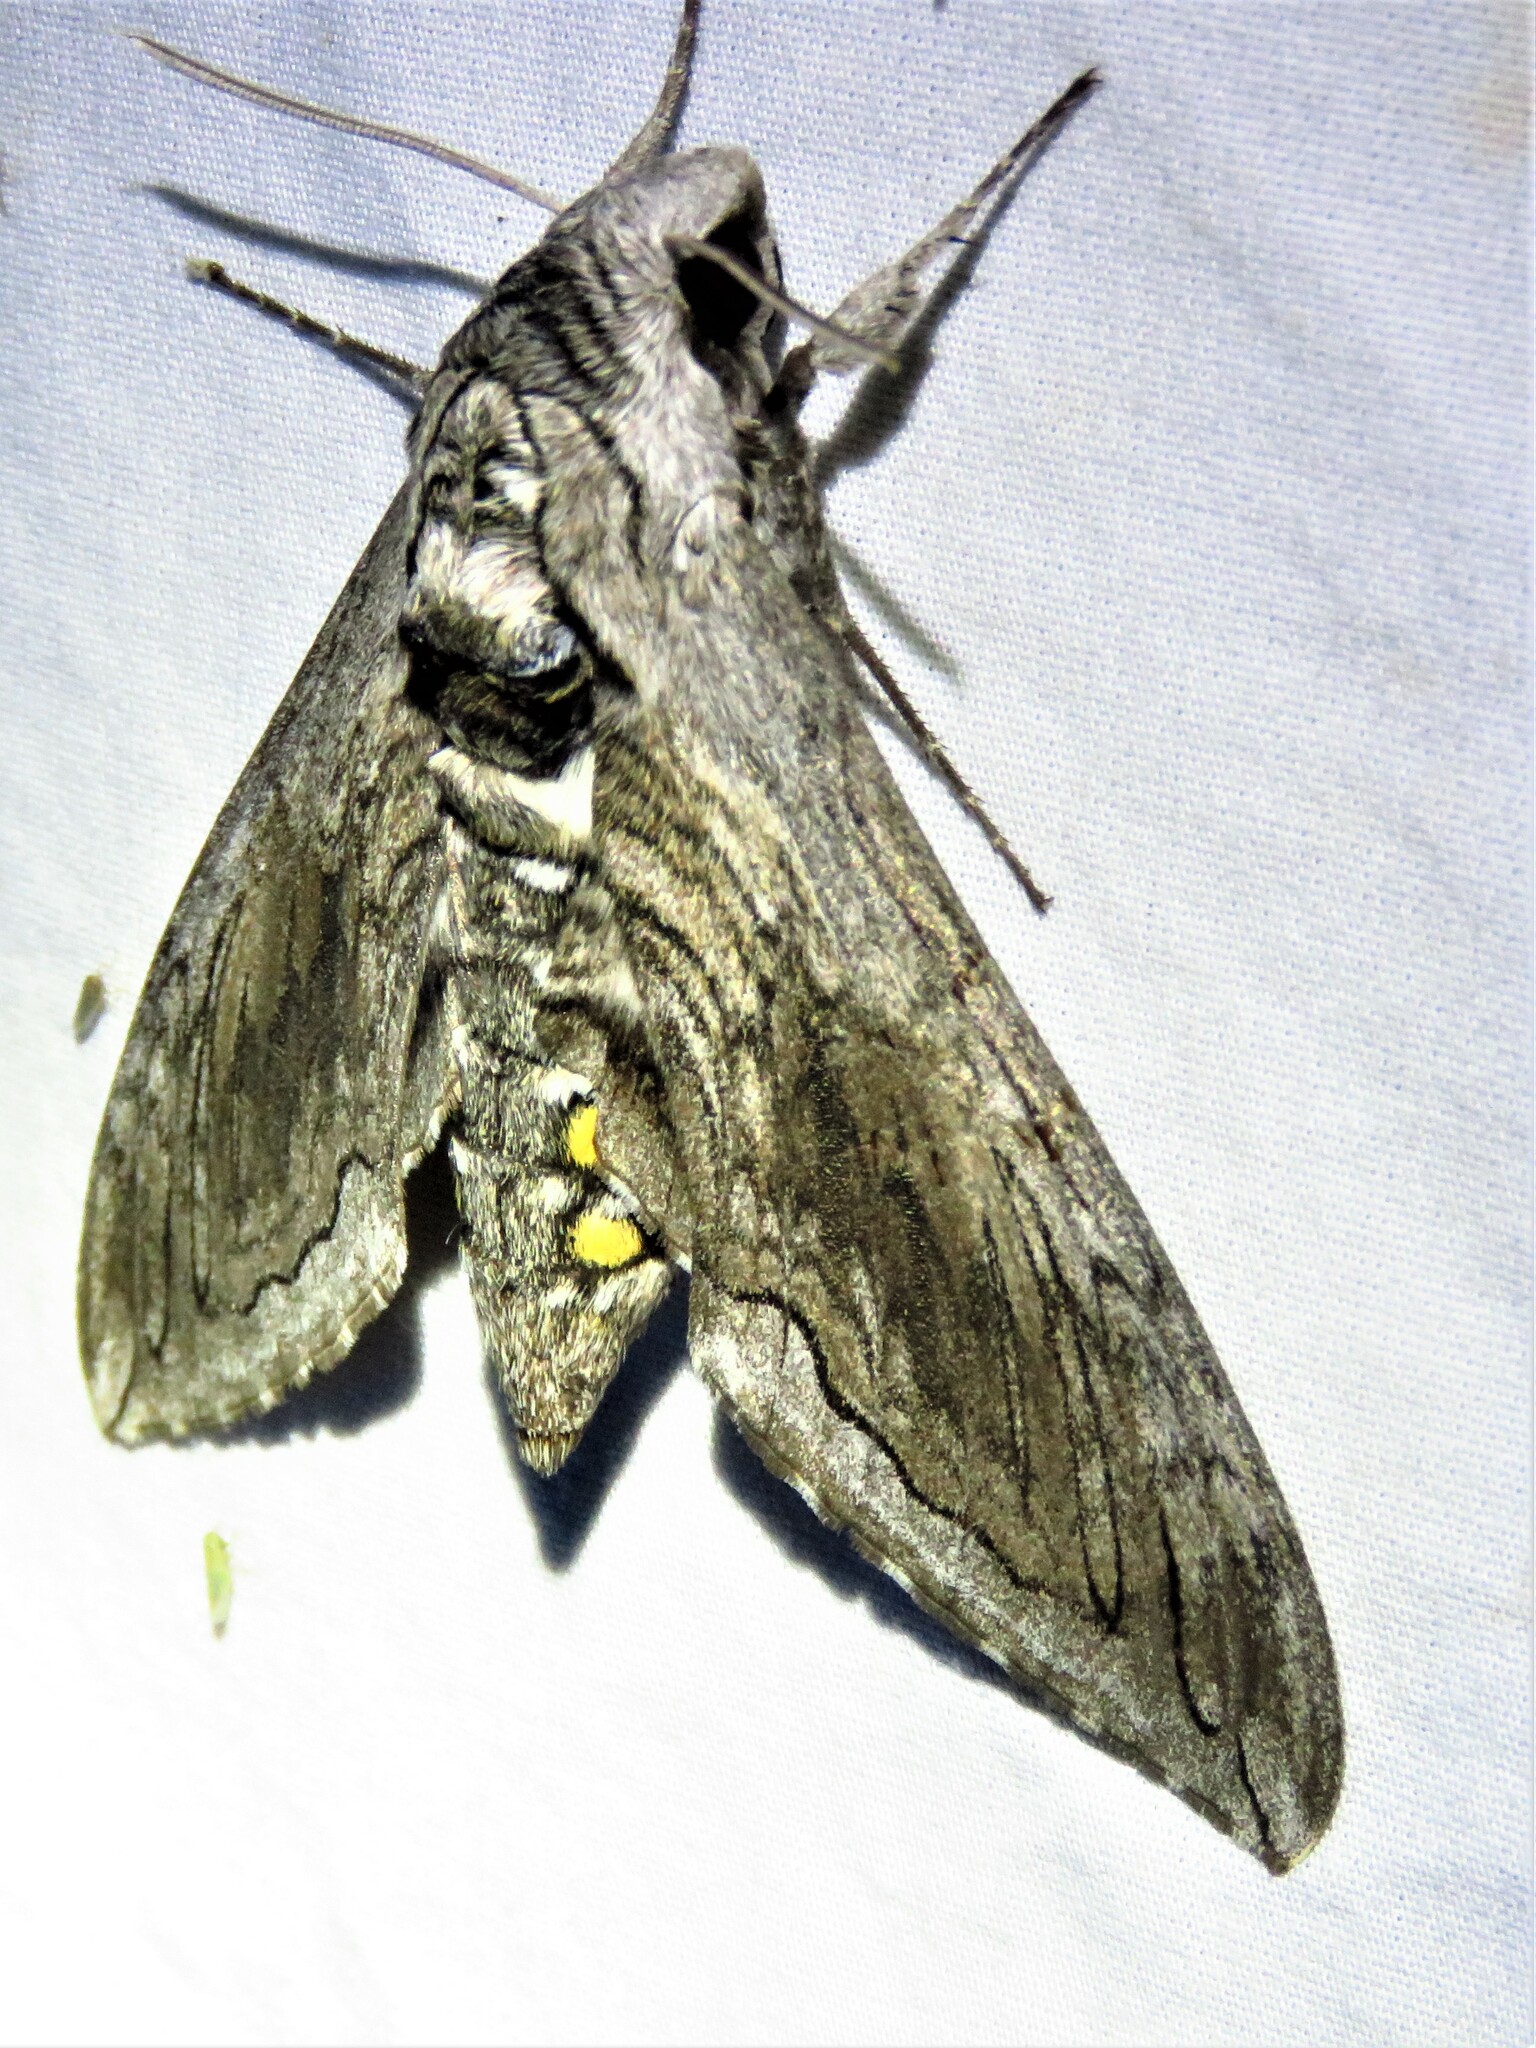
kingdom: Animalia
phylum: Arthropoda
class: Insecta
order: Lepidoptera
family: Sphingidae
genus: Manduca
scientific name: Manduca quinquemaculatus
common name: Five-spotted hawk-moth
